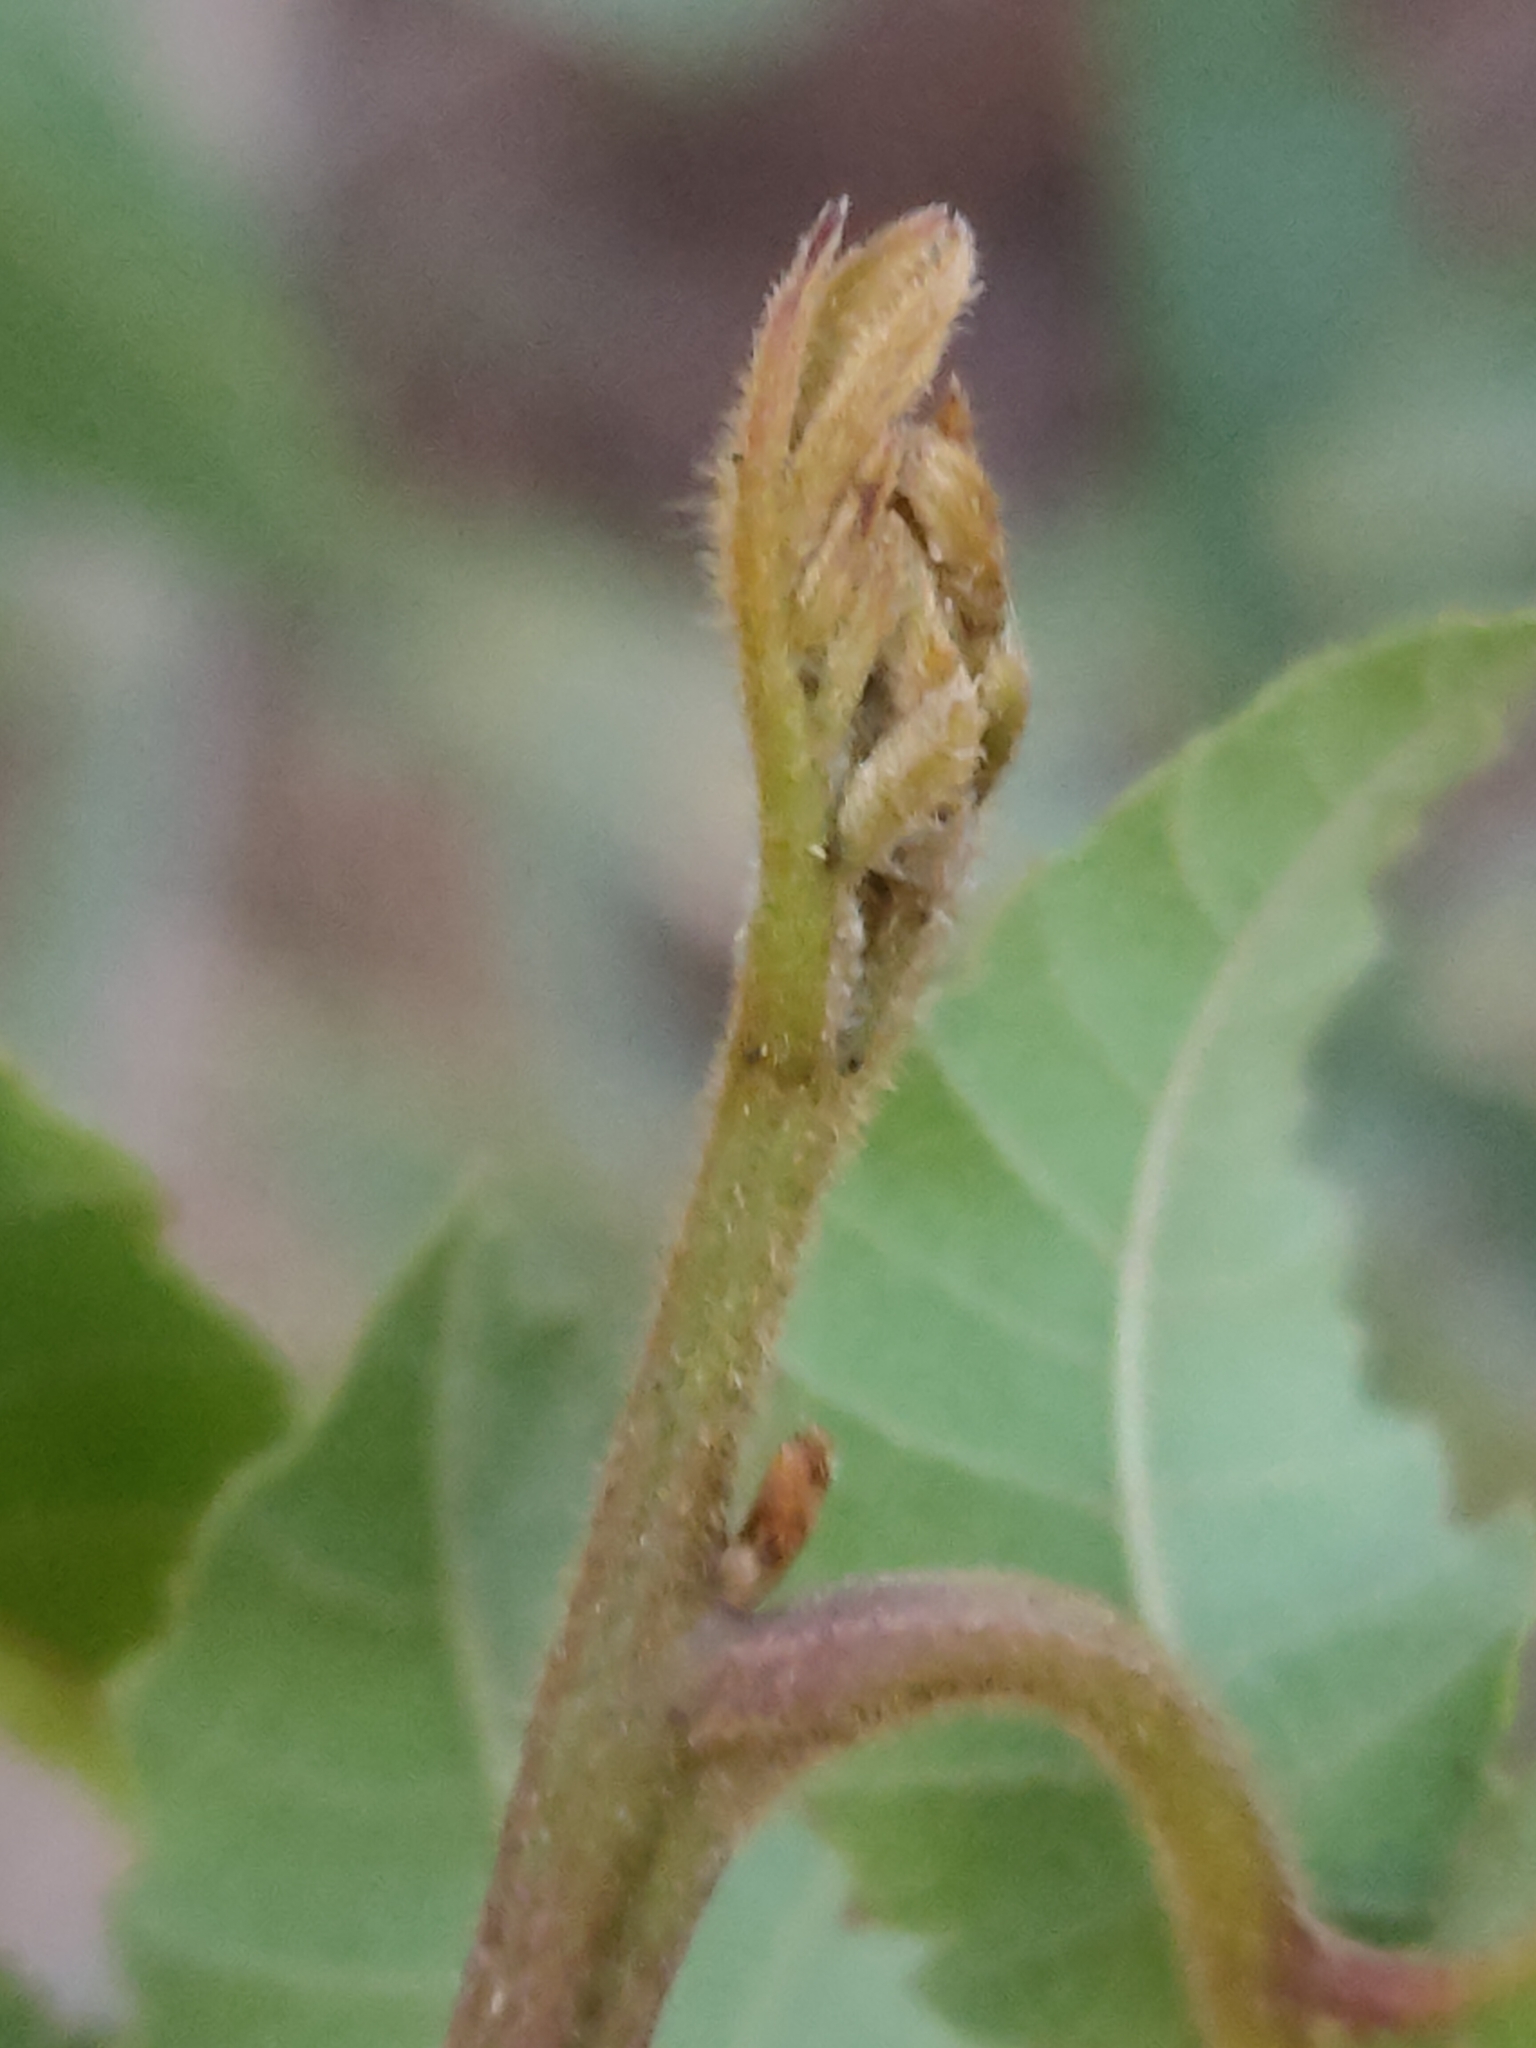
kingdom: Plantae
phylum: Tracheophyta
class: Magnoliopsida
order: Sapindales
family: Sapindaceae
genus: Alectryon
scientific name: Alectryon tomentosus
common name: Bed-jacket
